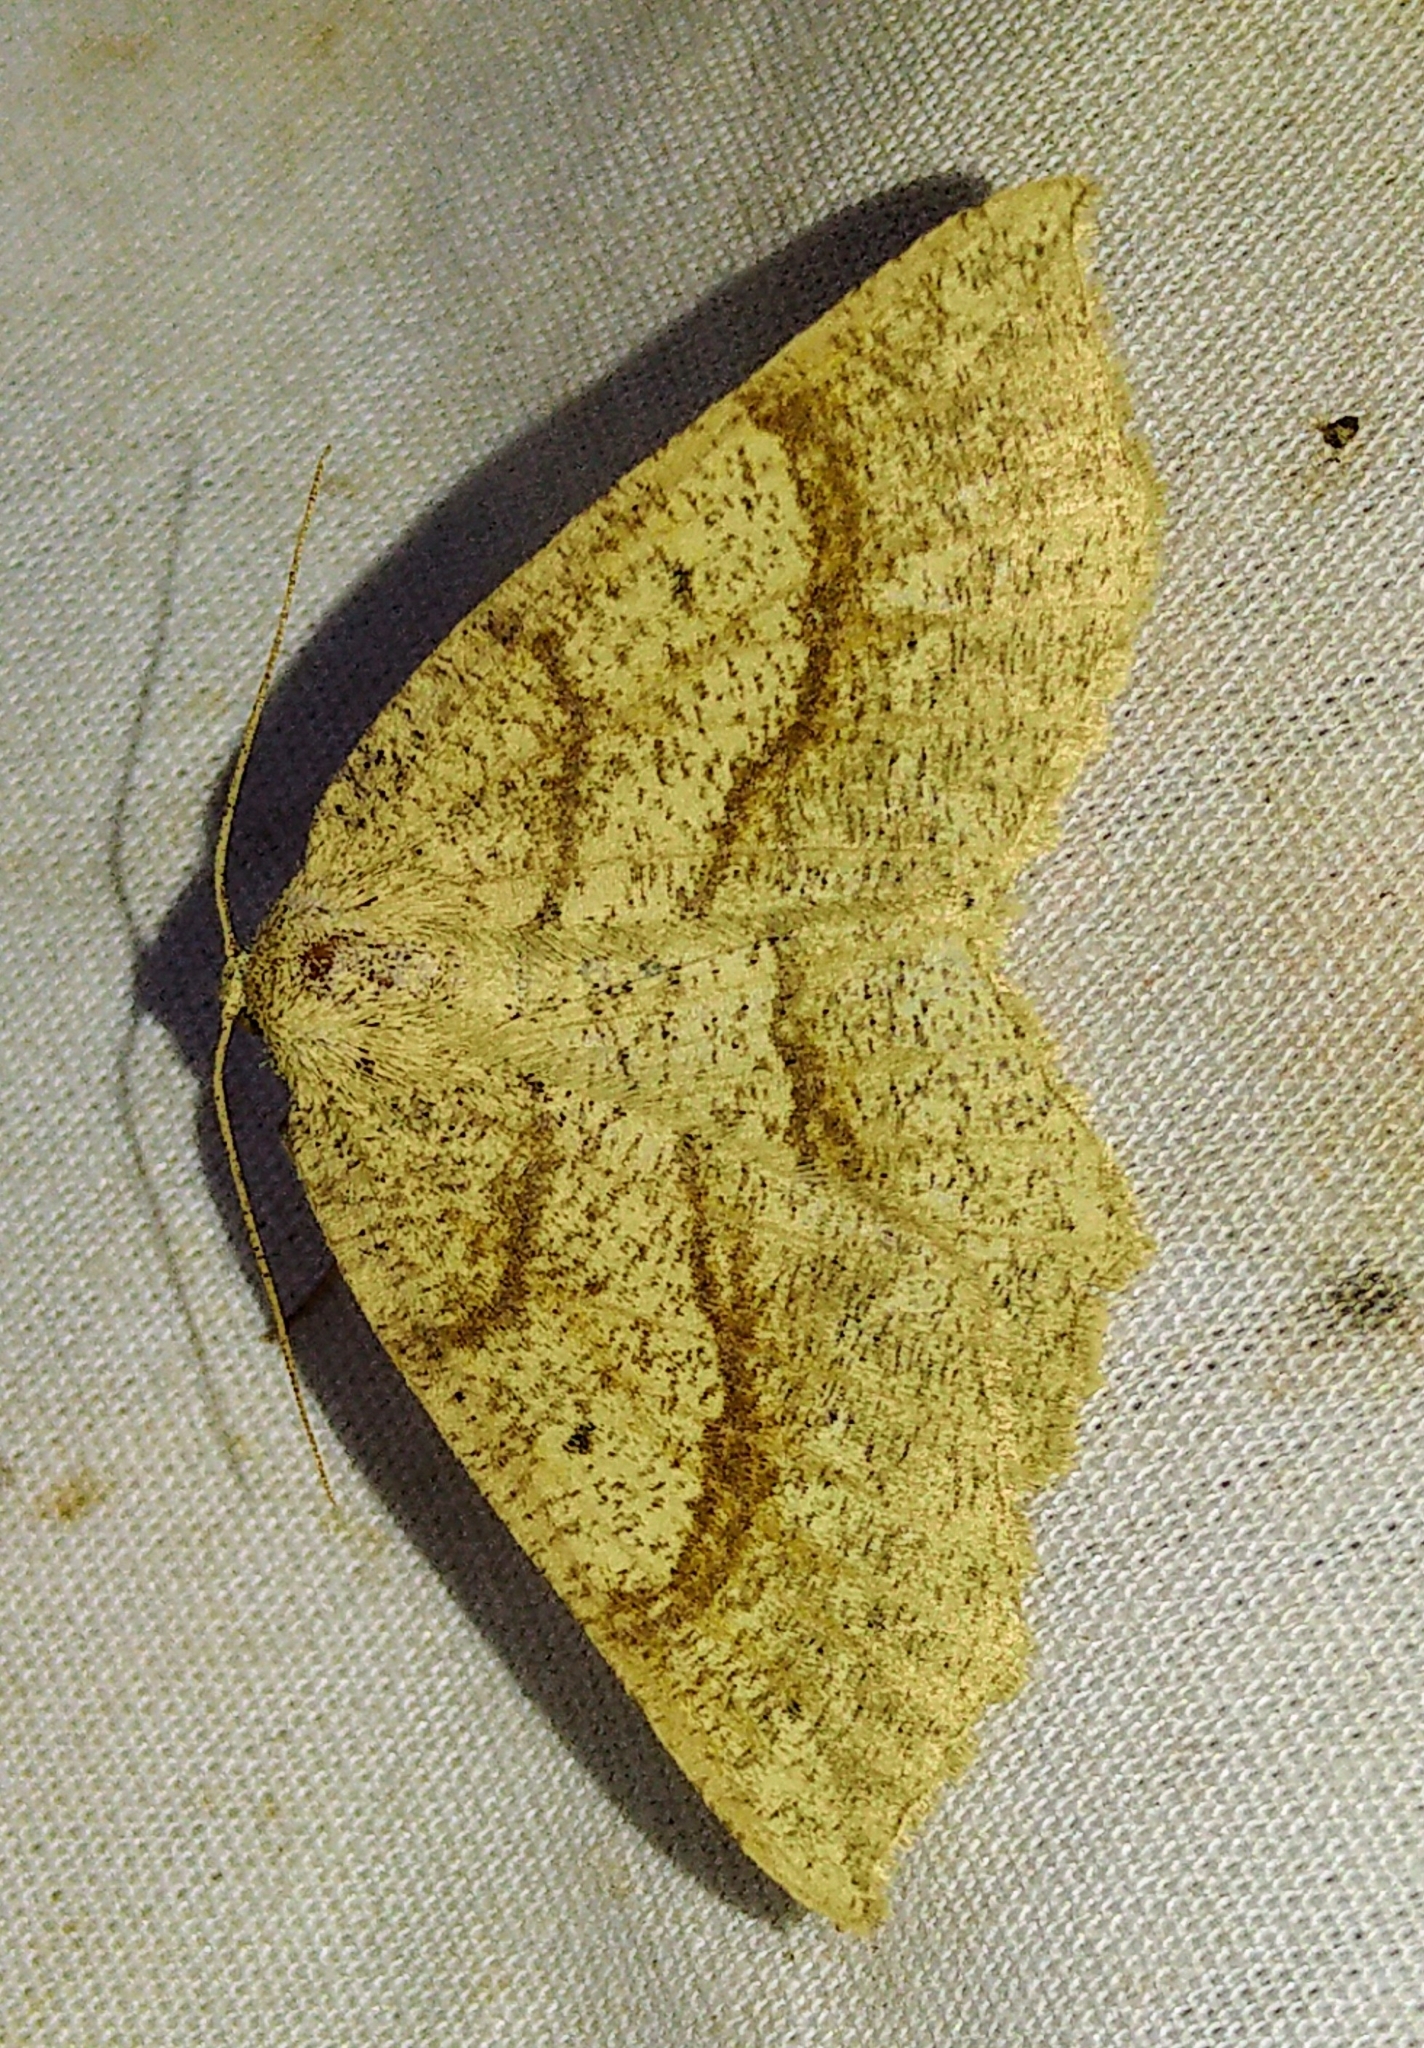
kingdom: Animalia
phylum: Arthropoda
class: Insecta
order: Lepidoptera
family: Geometridae
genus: Euchlaena
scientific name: Euchlaena marginaria
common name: Ochre euchlaena moth
